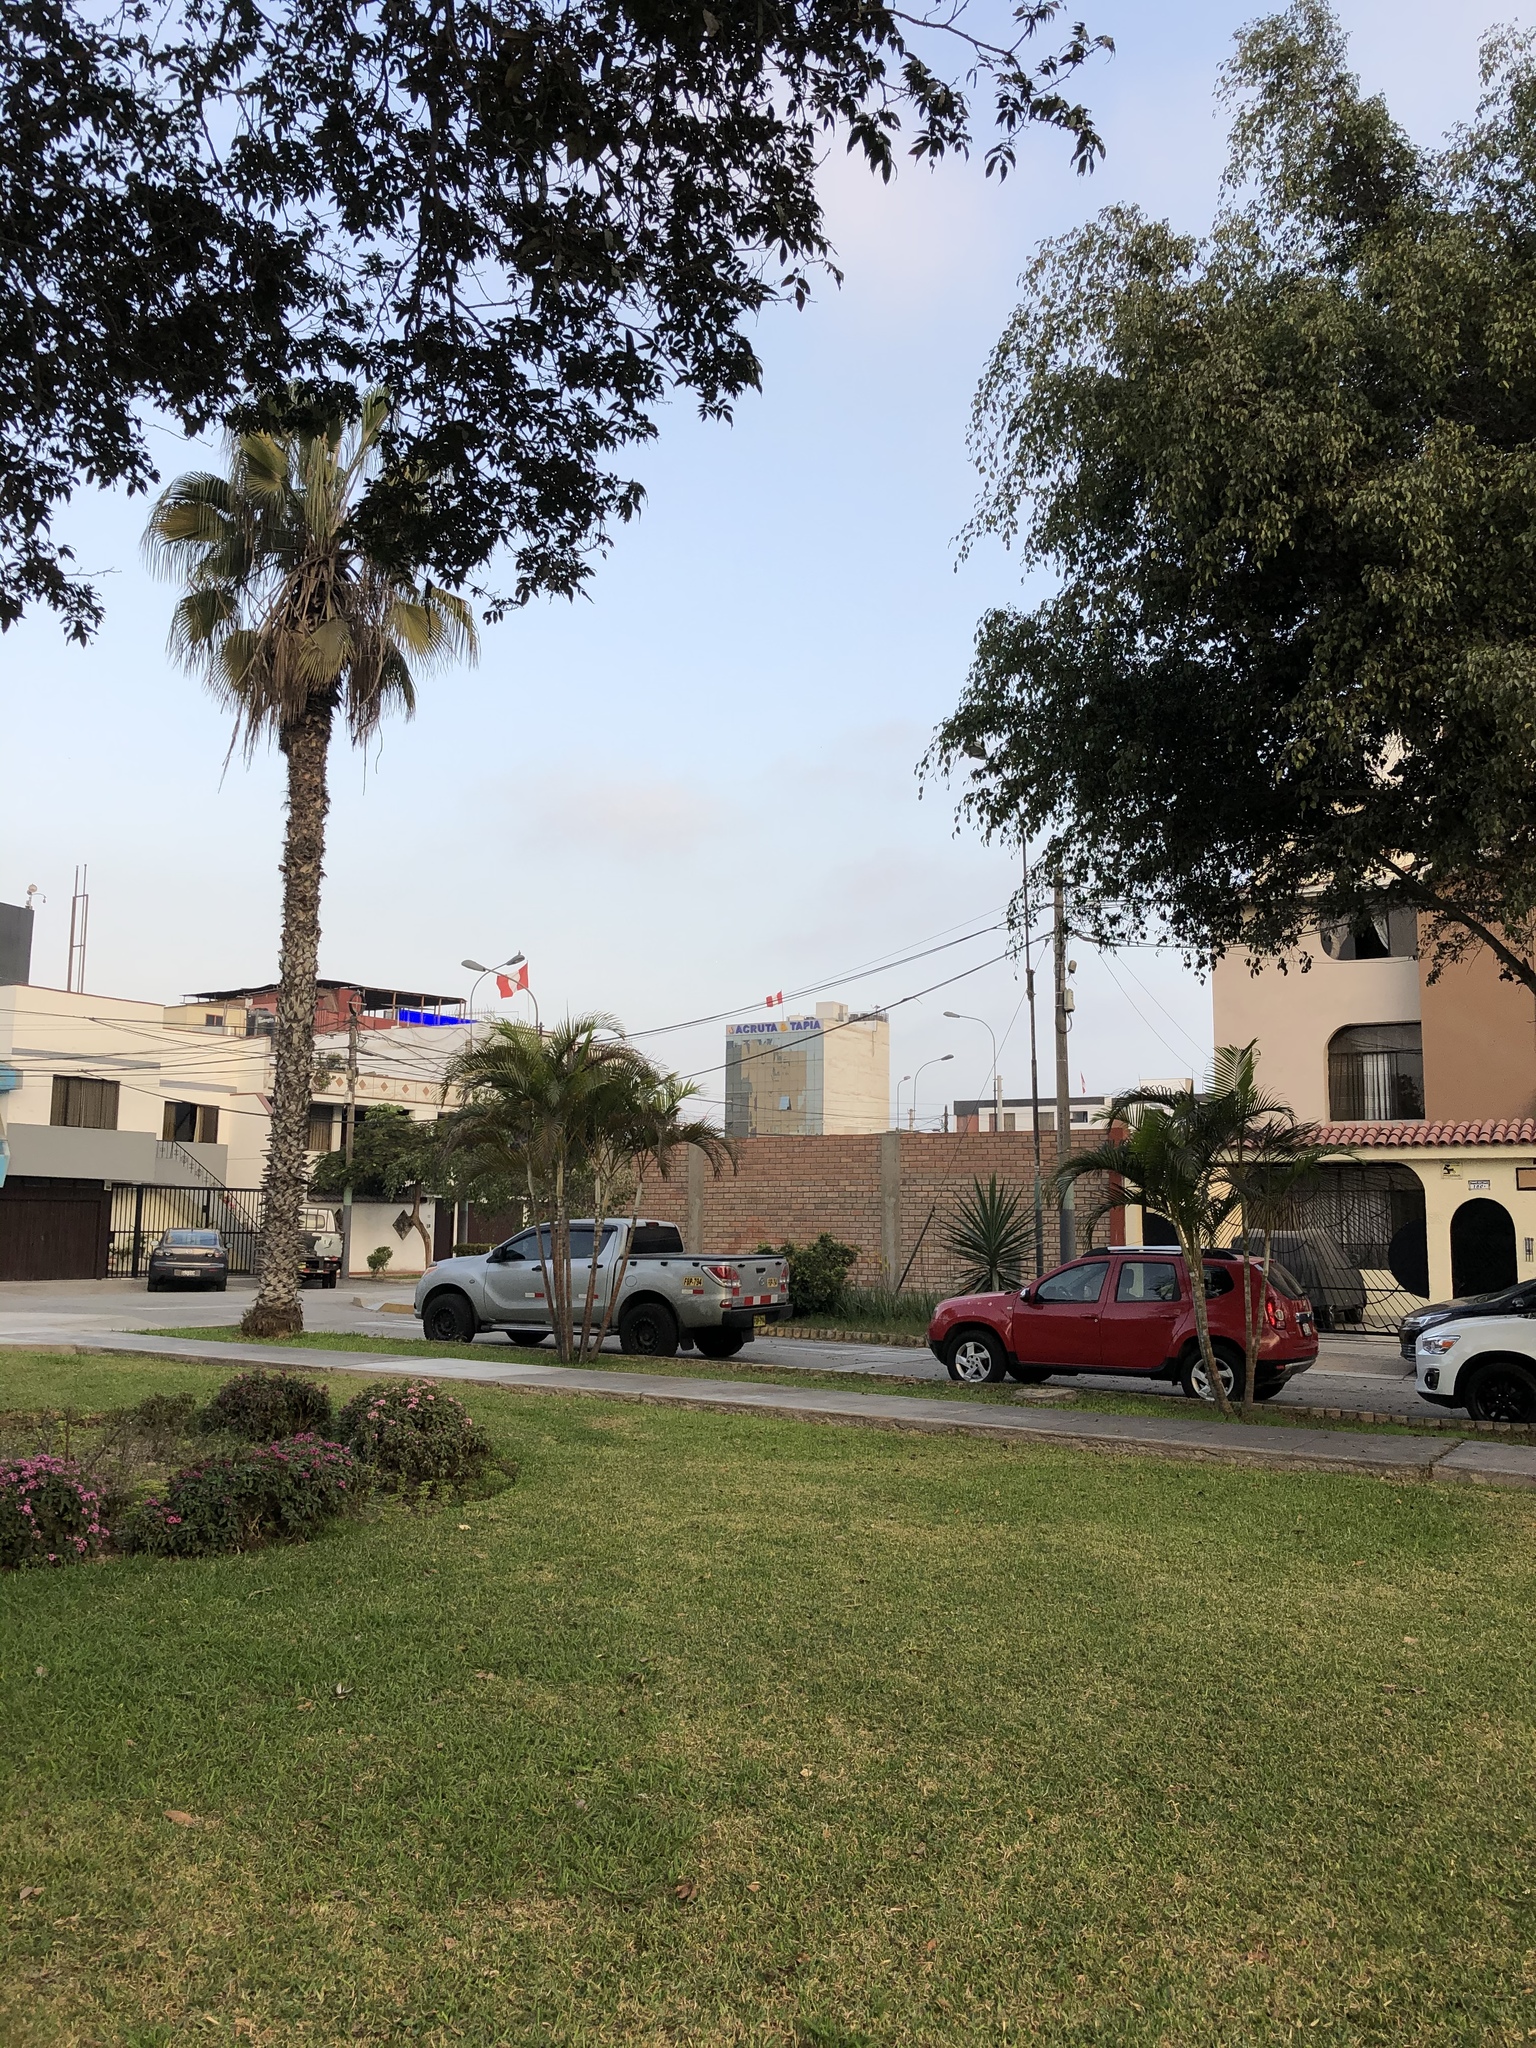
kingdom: Animalia
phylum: Chordata
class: Aves
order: Accipitriformes
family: Accipitridae
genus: Parabuteo
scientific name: Parabuteo unicinctus
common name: Harris's hawk
